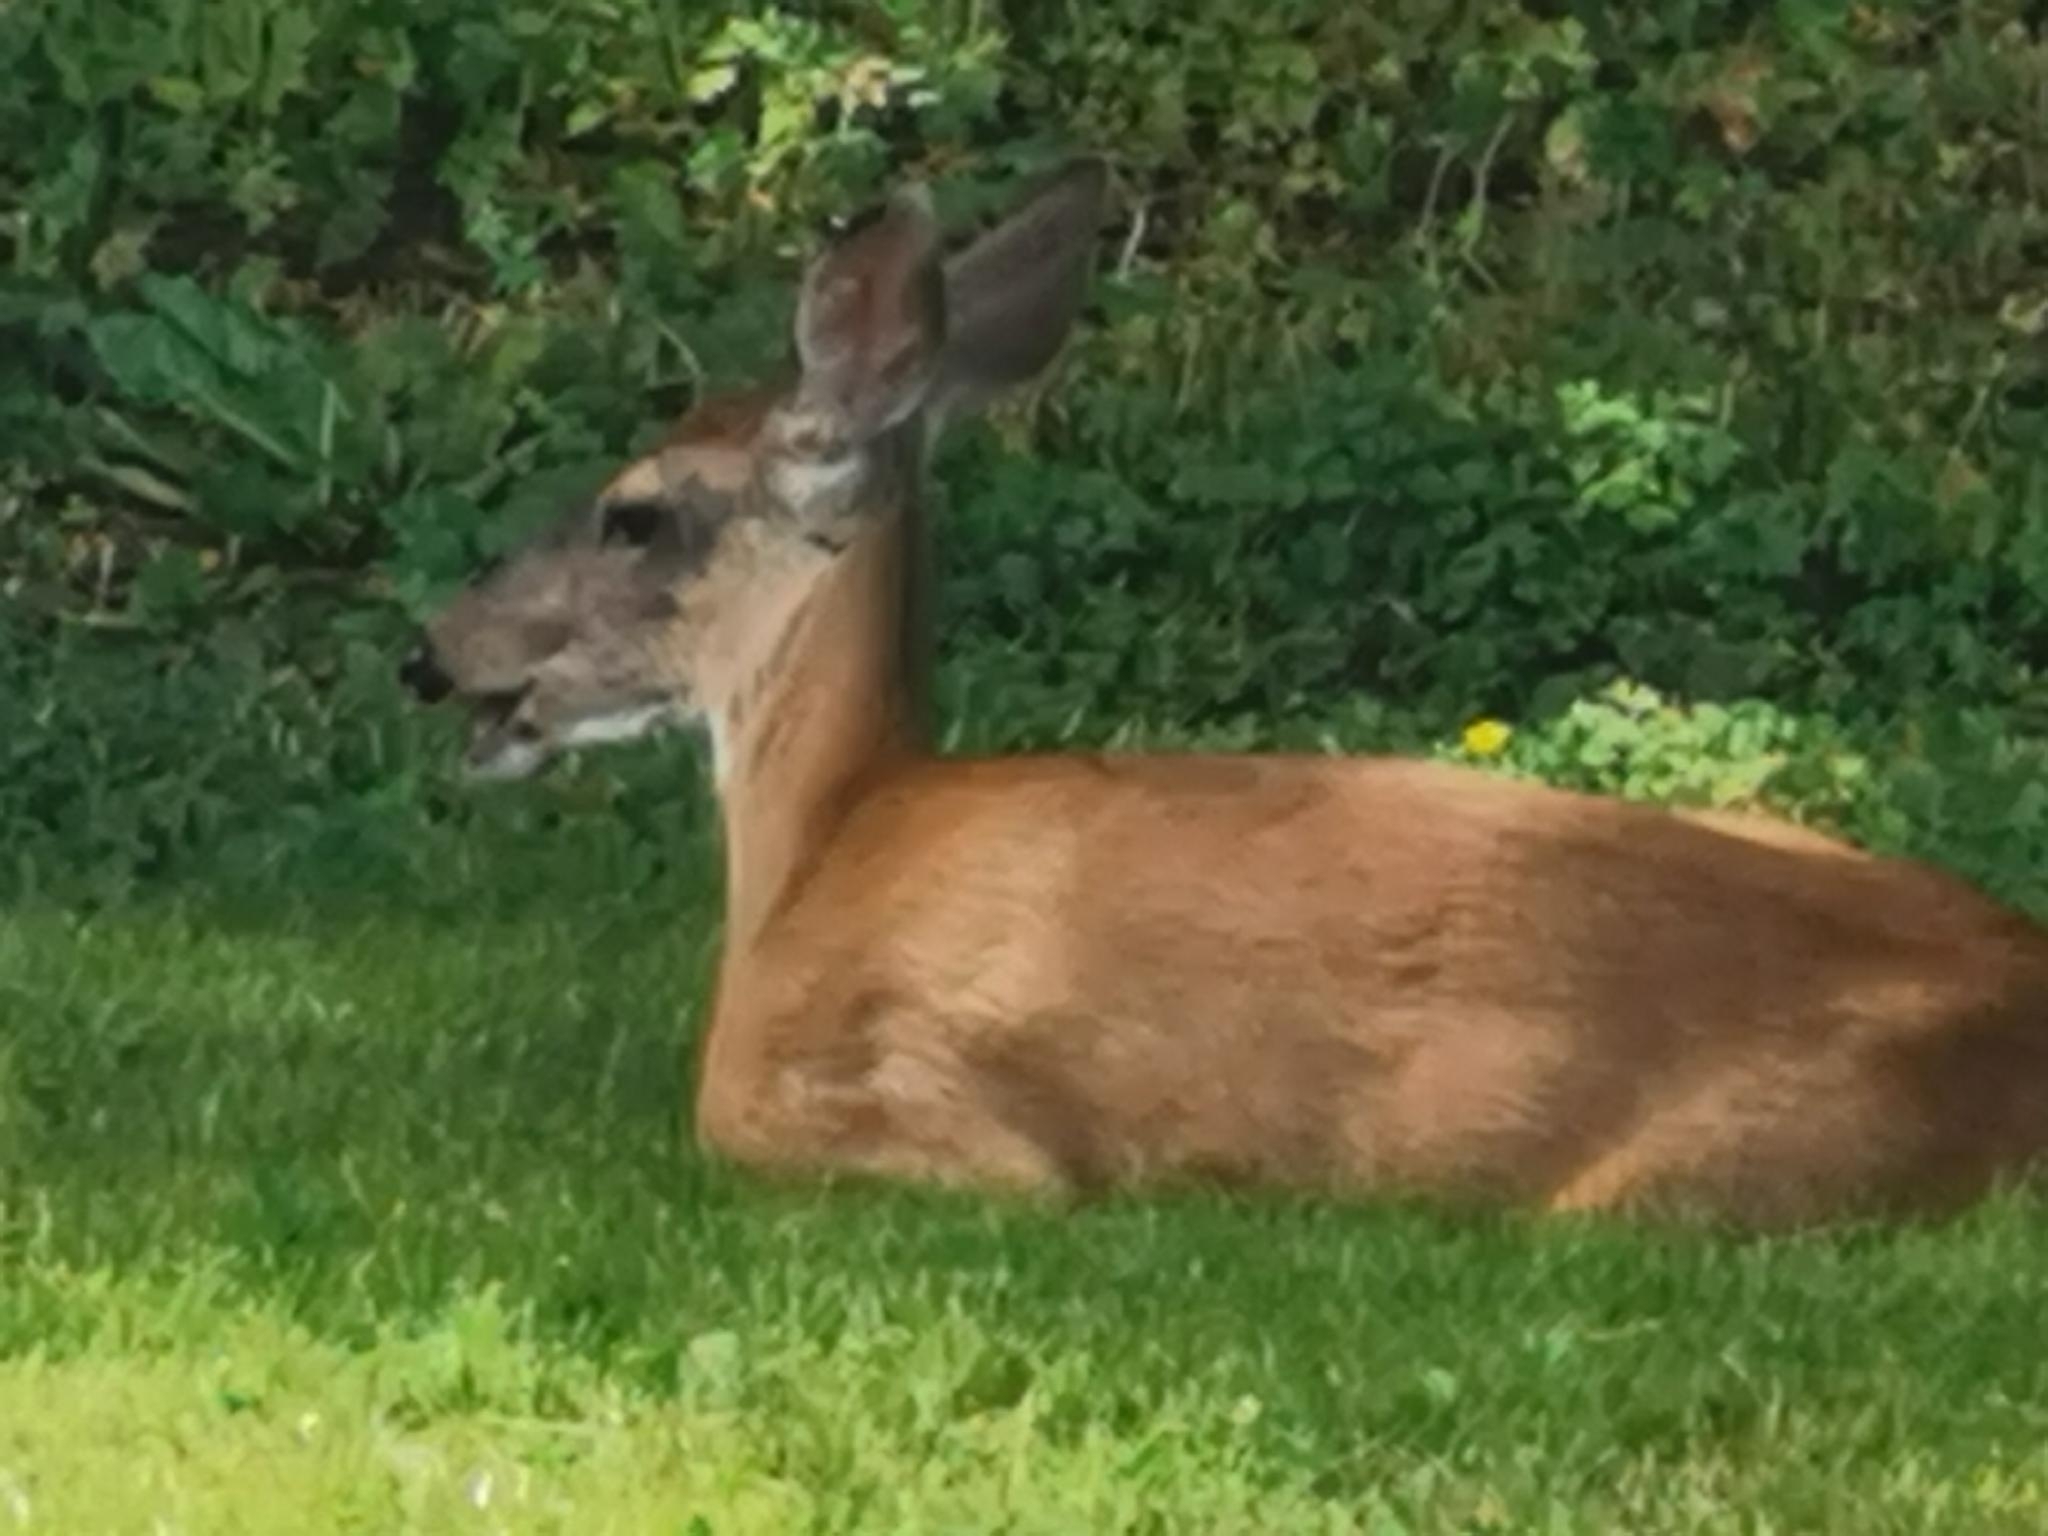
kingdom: Animalia
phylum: Chordata
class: Mammalia
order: Artiodactyla
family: Cervidae
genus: Odocoileus
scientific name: Odocoileus hemionus
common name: Mule deer
